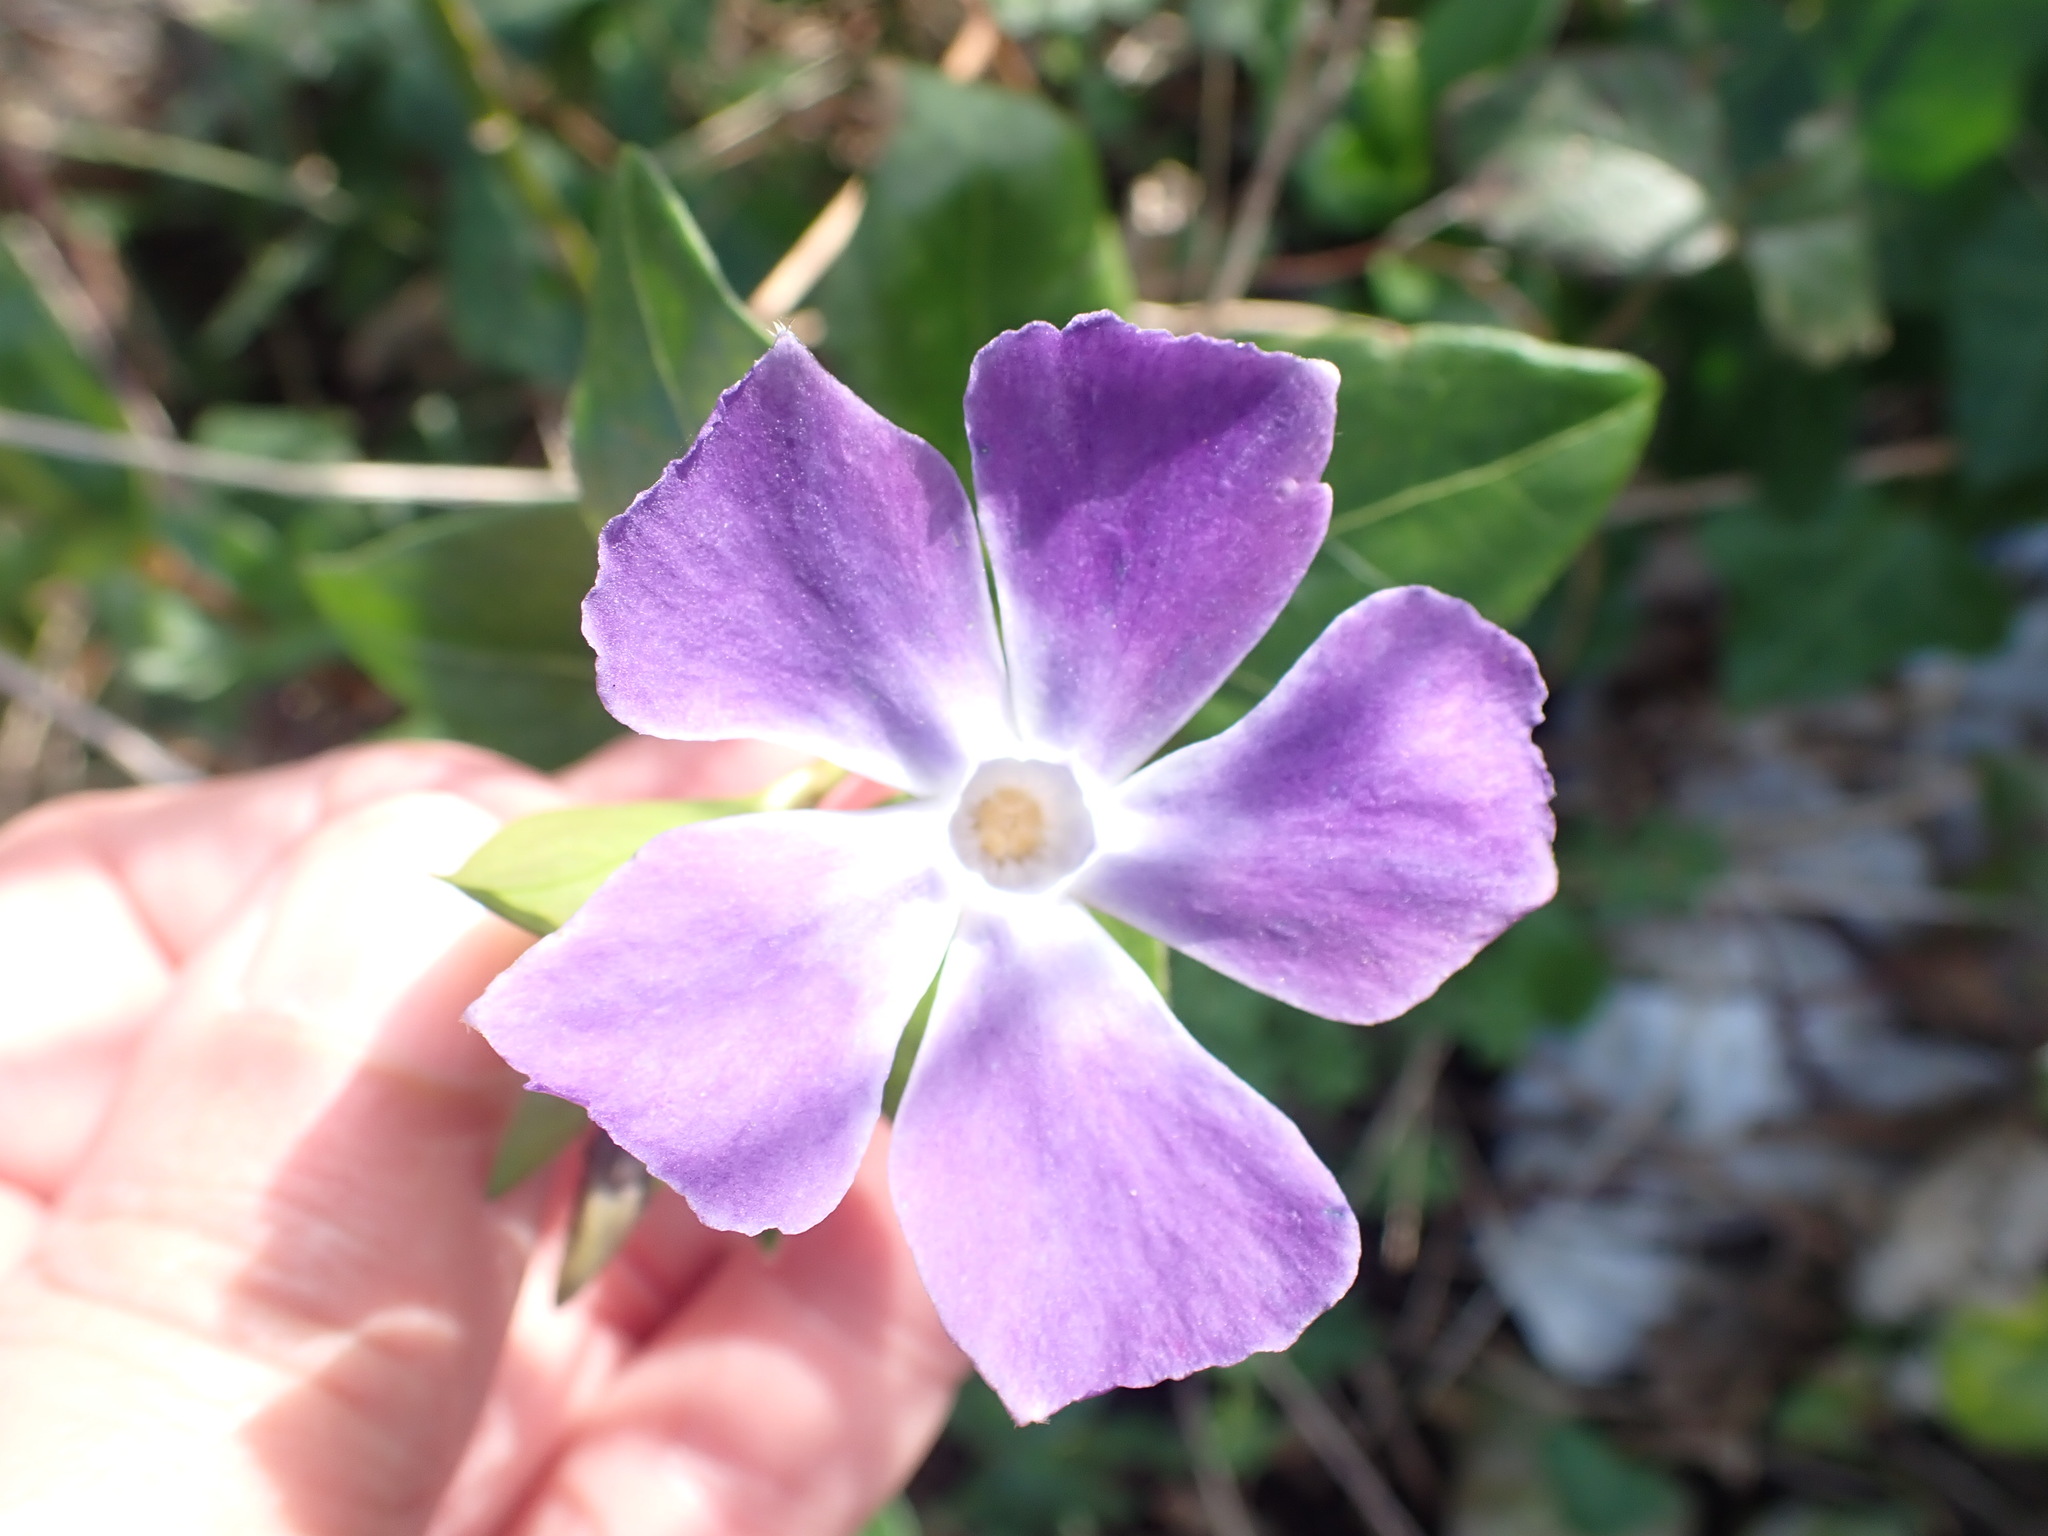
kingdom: Plantae
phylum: Tracheophyta
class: Magnoliopsida
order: Gentianales
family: Apocynaceae
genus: Vinca
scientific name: Vinca major
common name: Greater periwinkle
